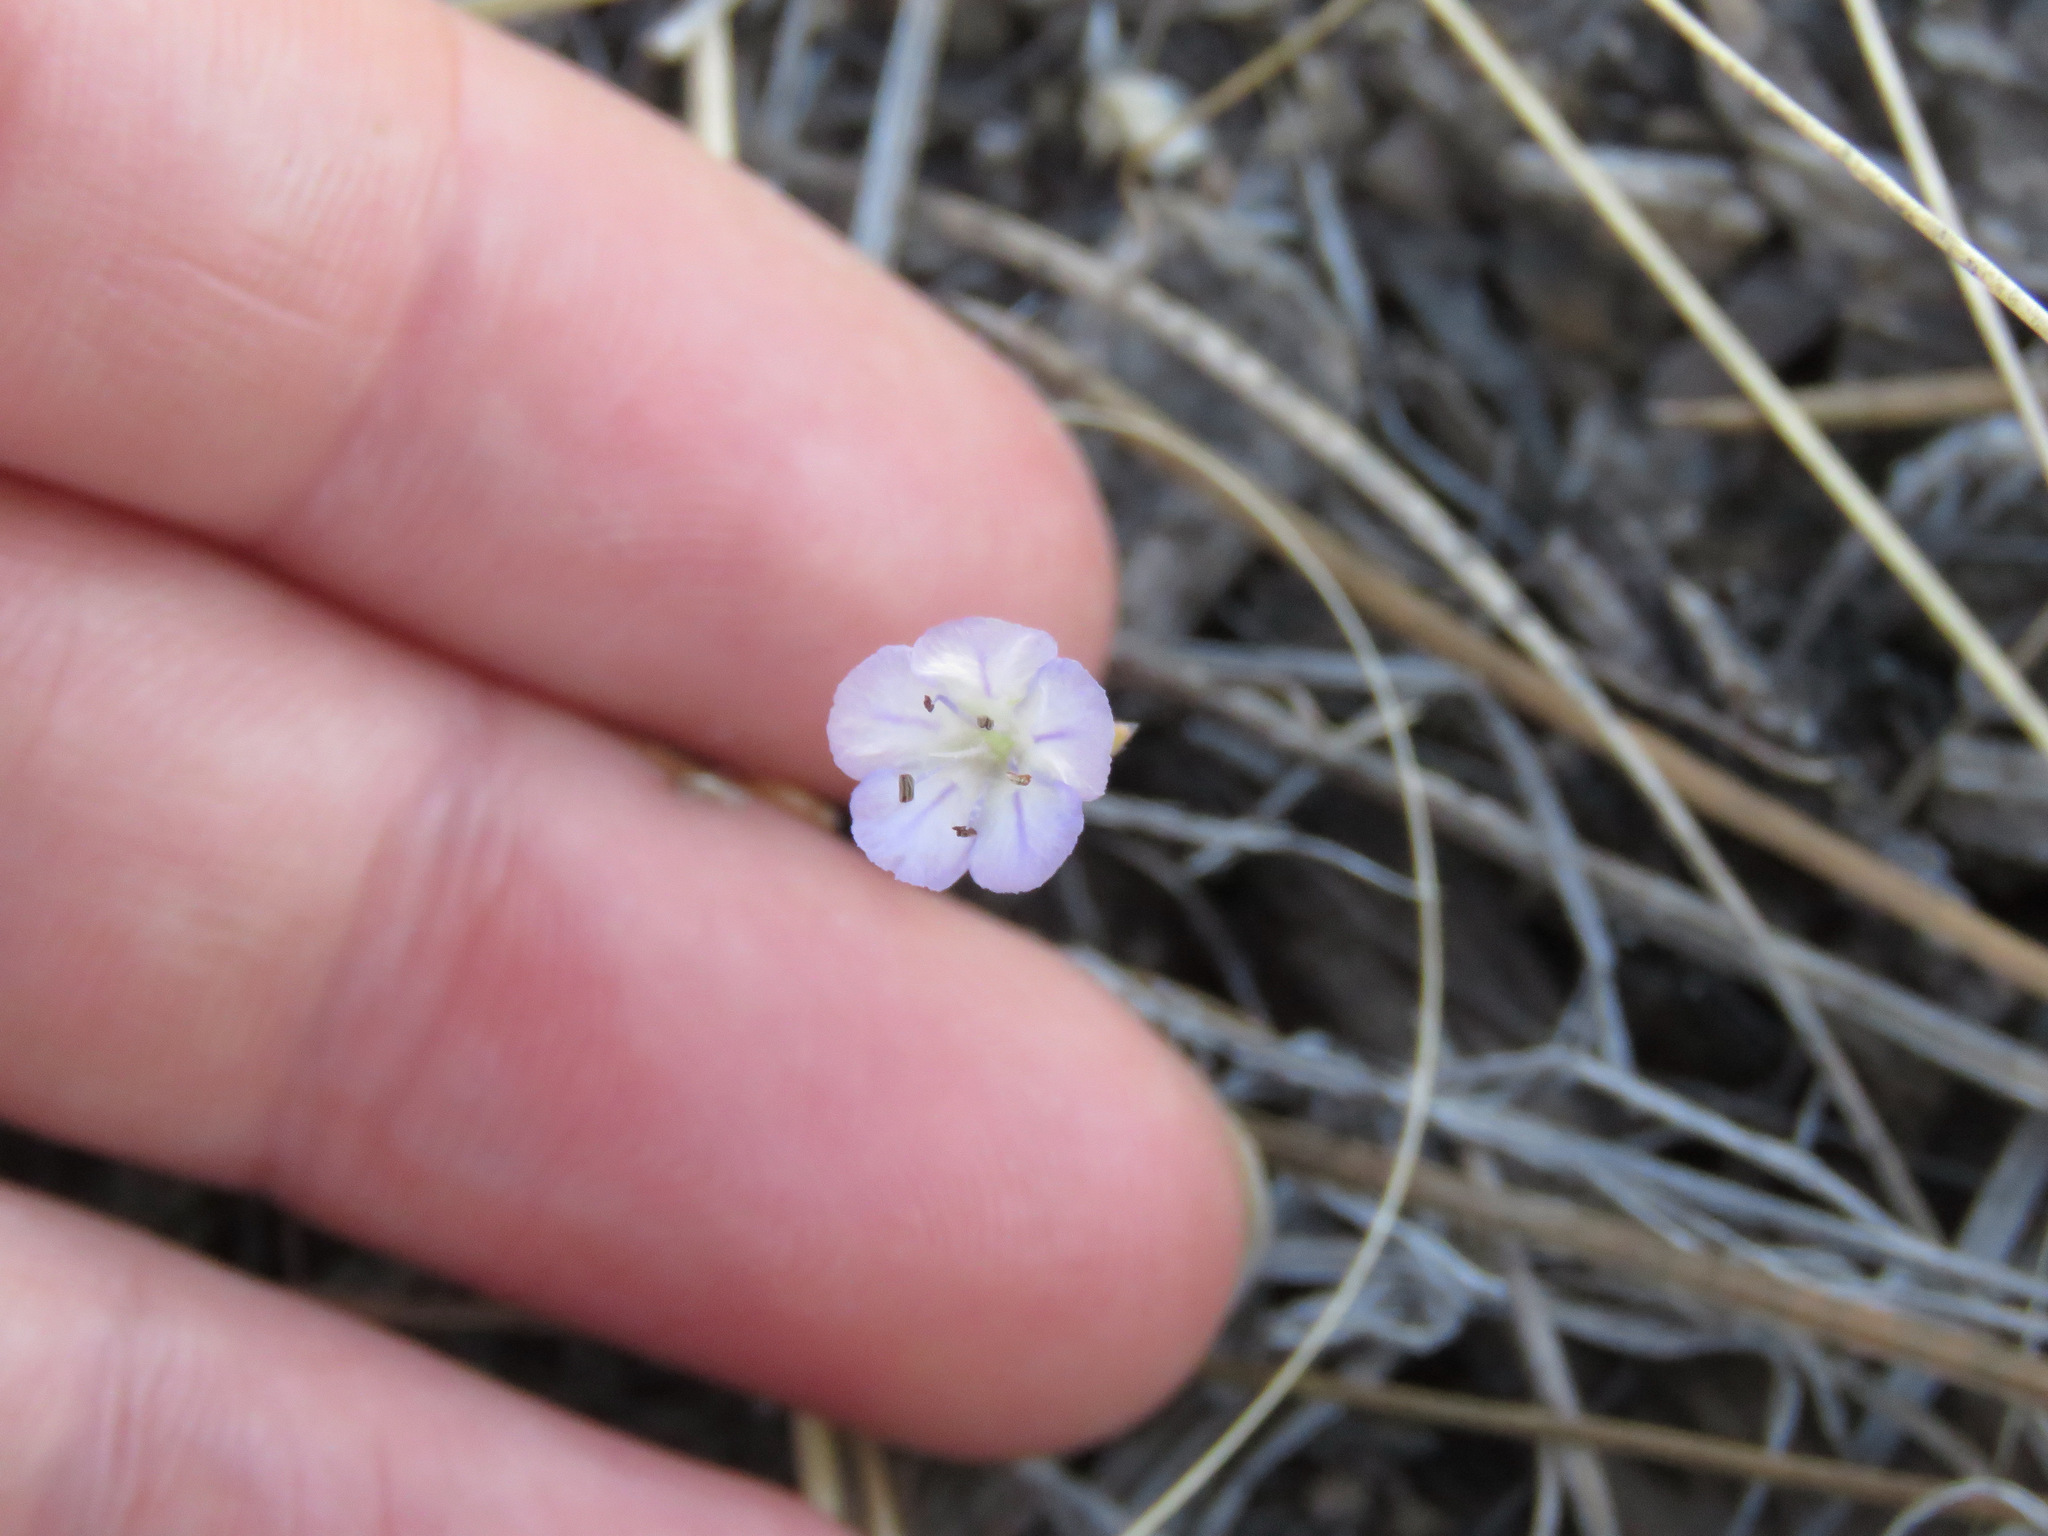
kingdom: Plantae
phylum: Tracheophyta
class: Magnoliopsida
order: Boraginales
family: Hydrophyllaceae
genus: Phacelia
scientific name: Phacelia linearis
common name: Linear-leaved phacelia
